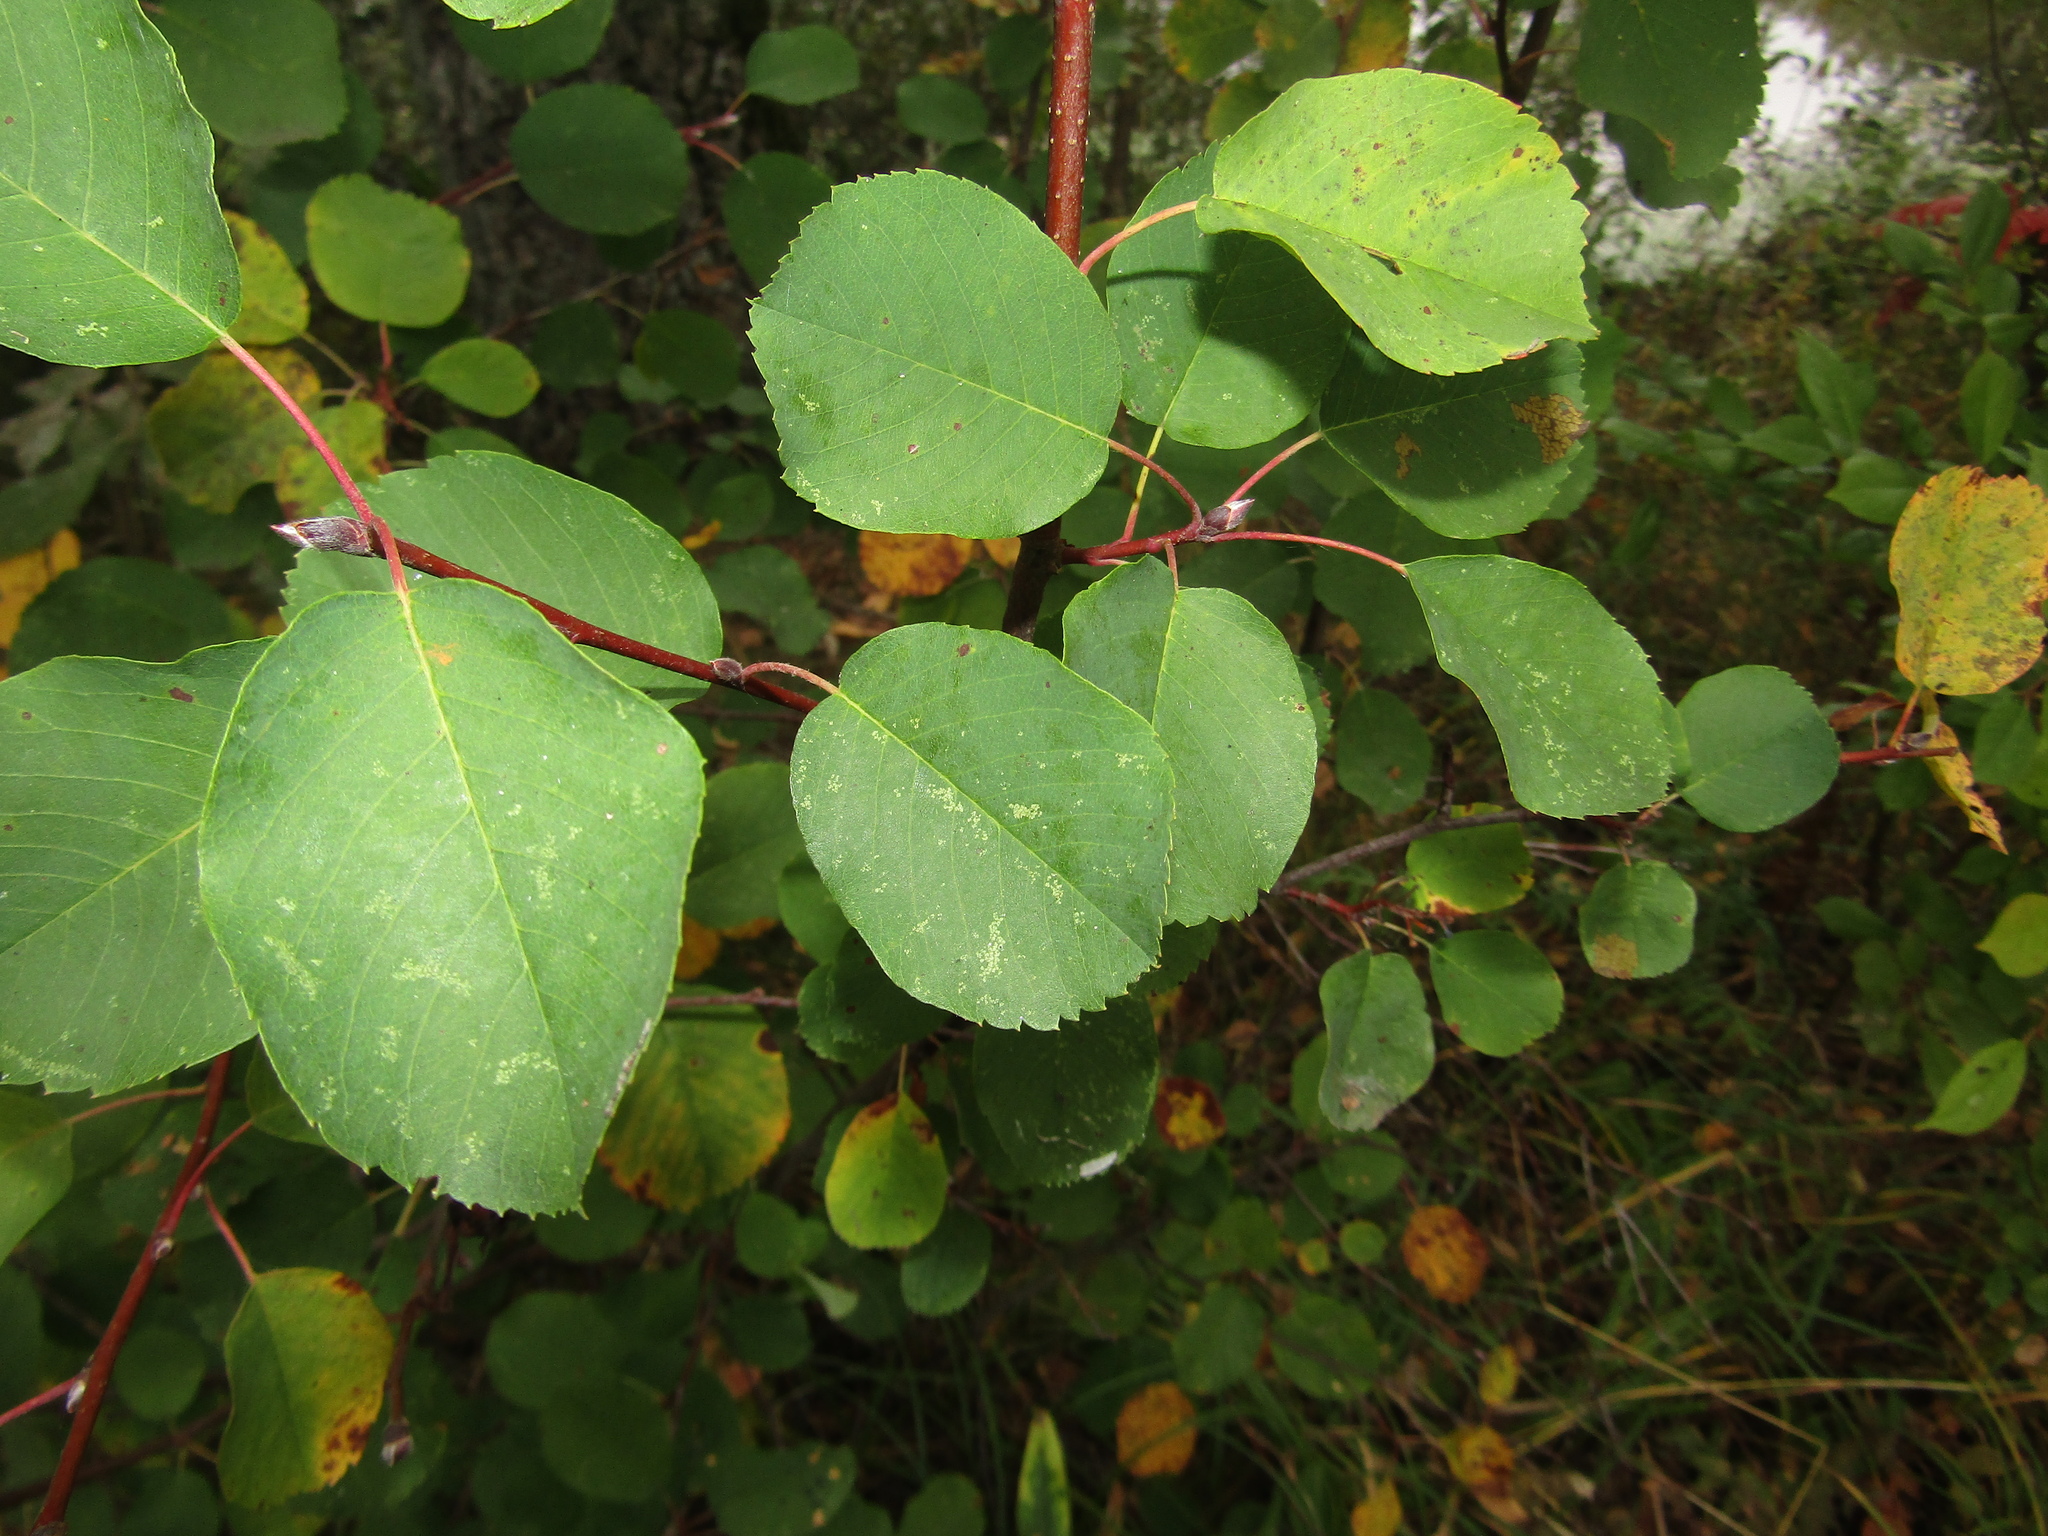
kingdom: Plantae
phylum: Tracheophyta
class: Magnoliopsida
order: Rosales
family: Rosaceae
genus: Amelanchier
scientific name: Amelanchier alnifolia
